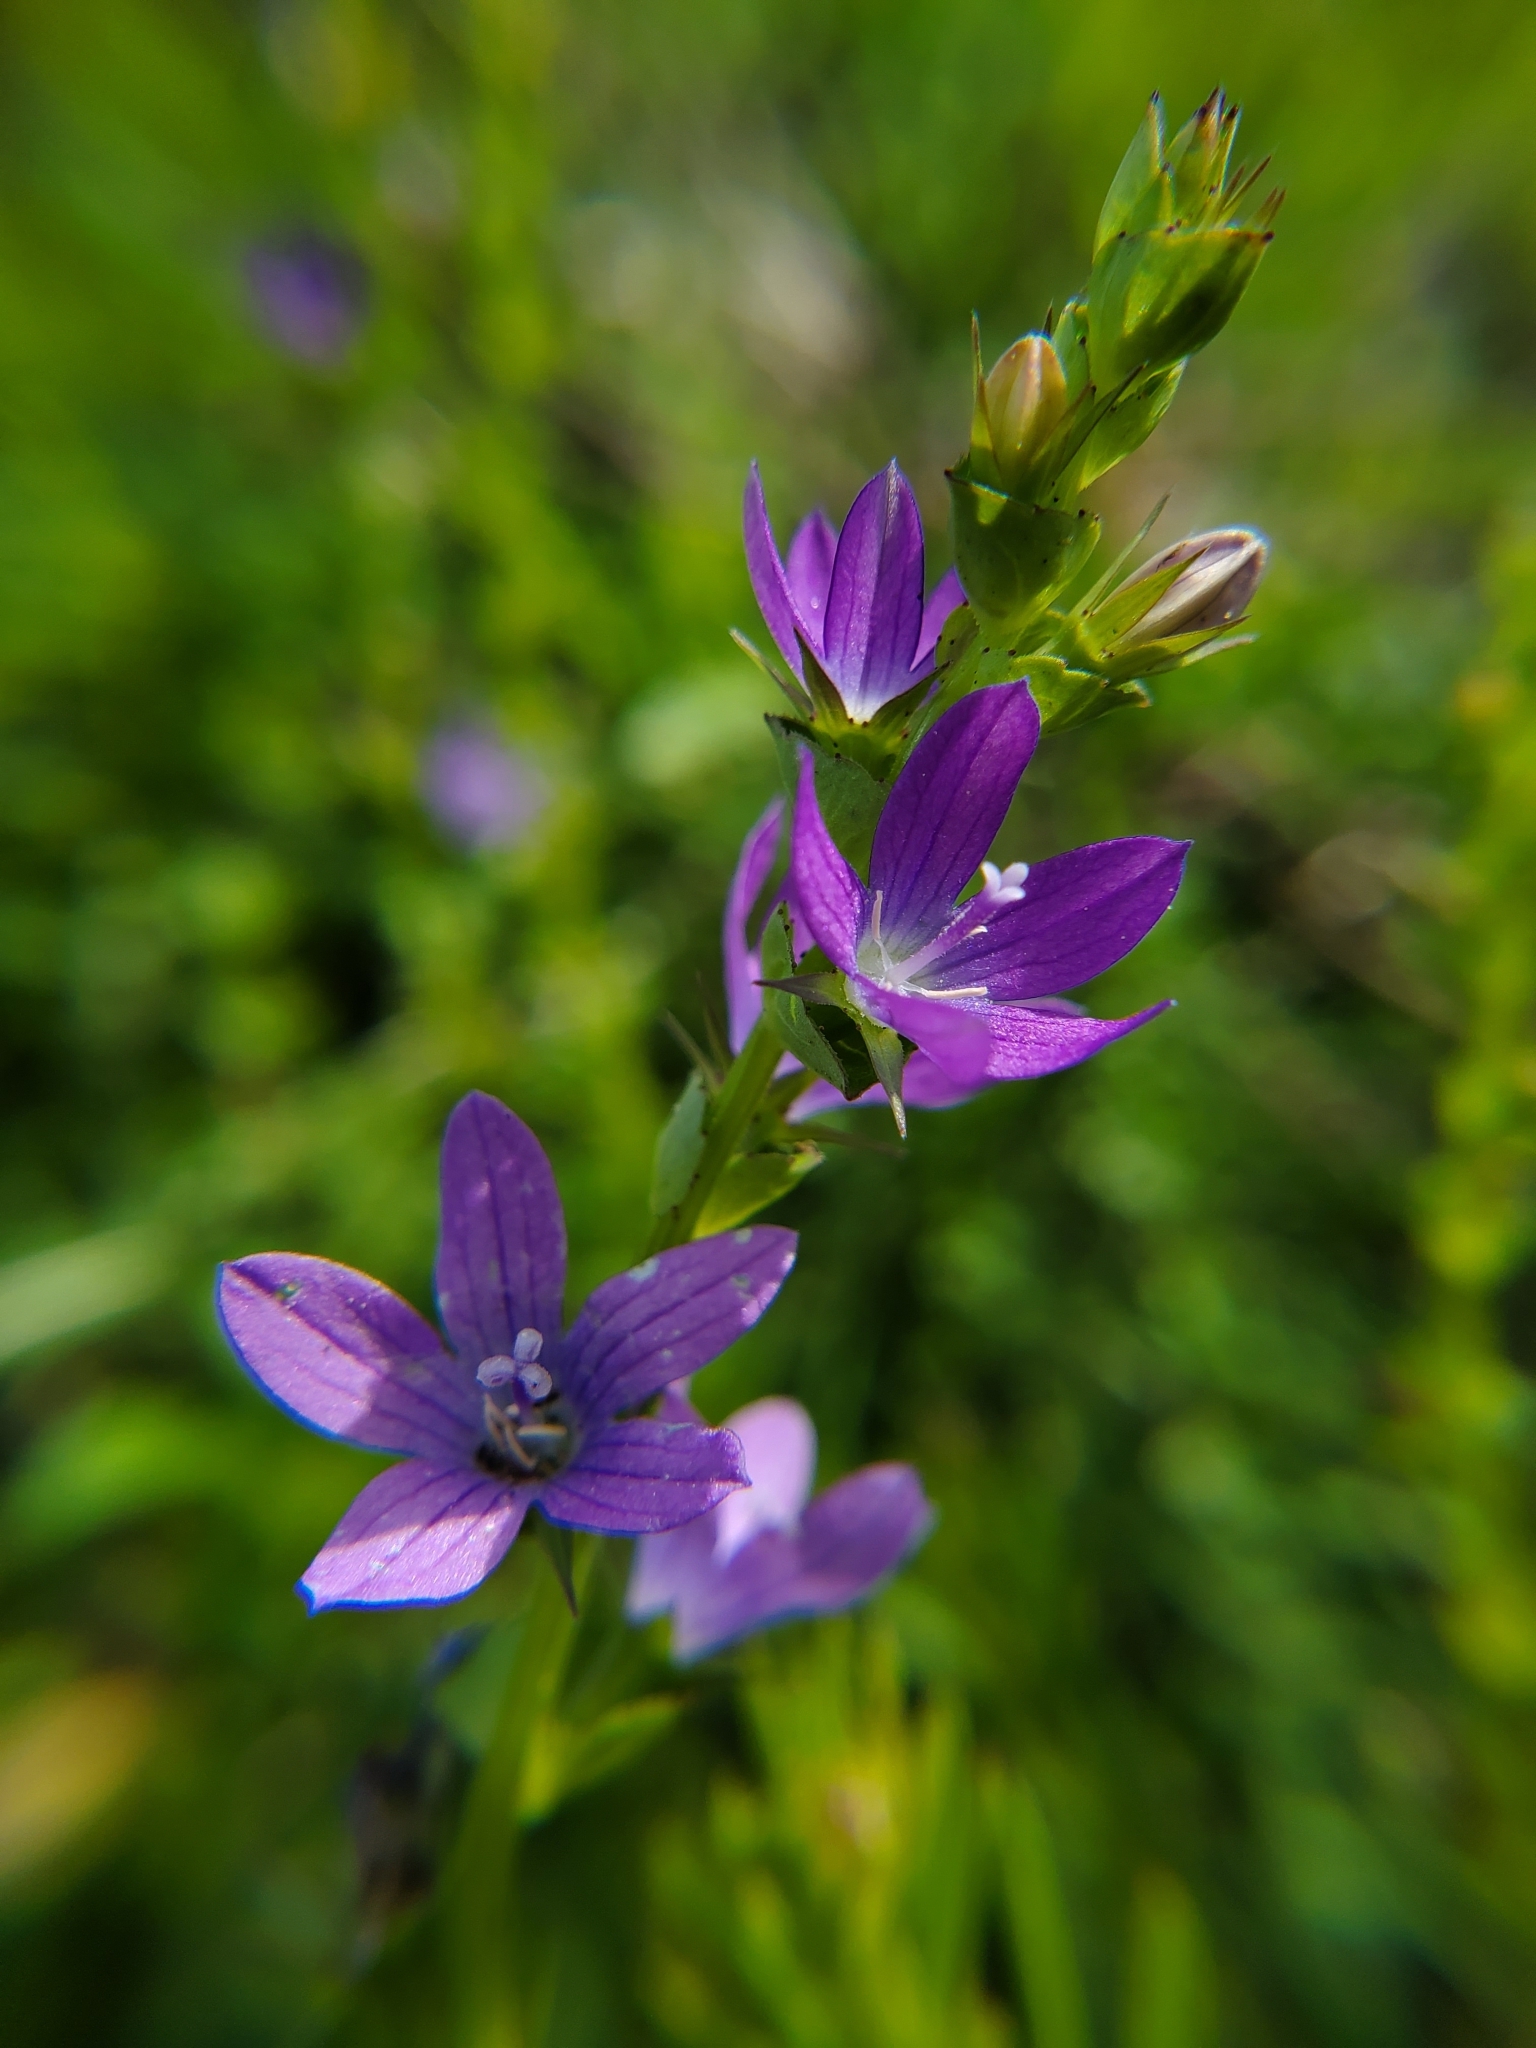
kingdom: Plantae
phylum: Tracheophyta
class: Magnoliopsida
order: Asterales
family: Campanulaceae
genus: Triodanis
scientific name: Triodanis perfoliata
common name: Clasping venus' looking-glass
